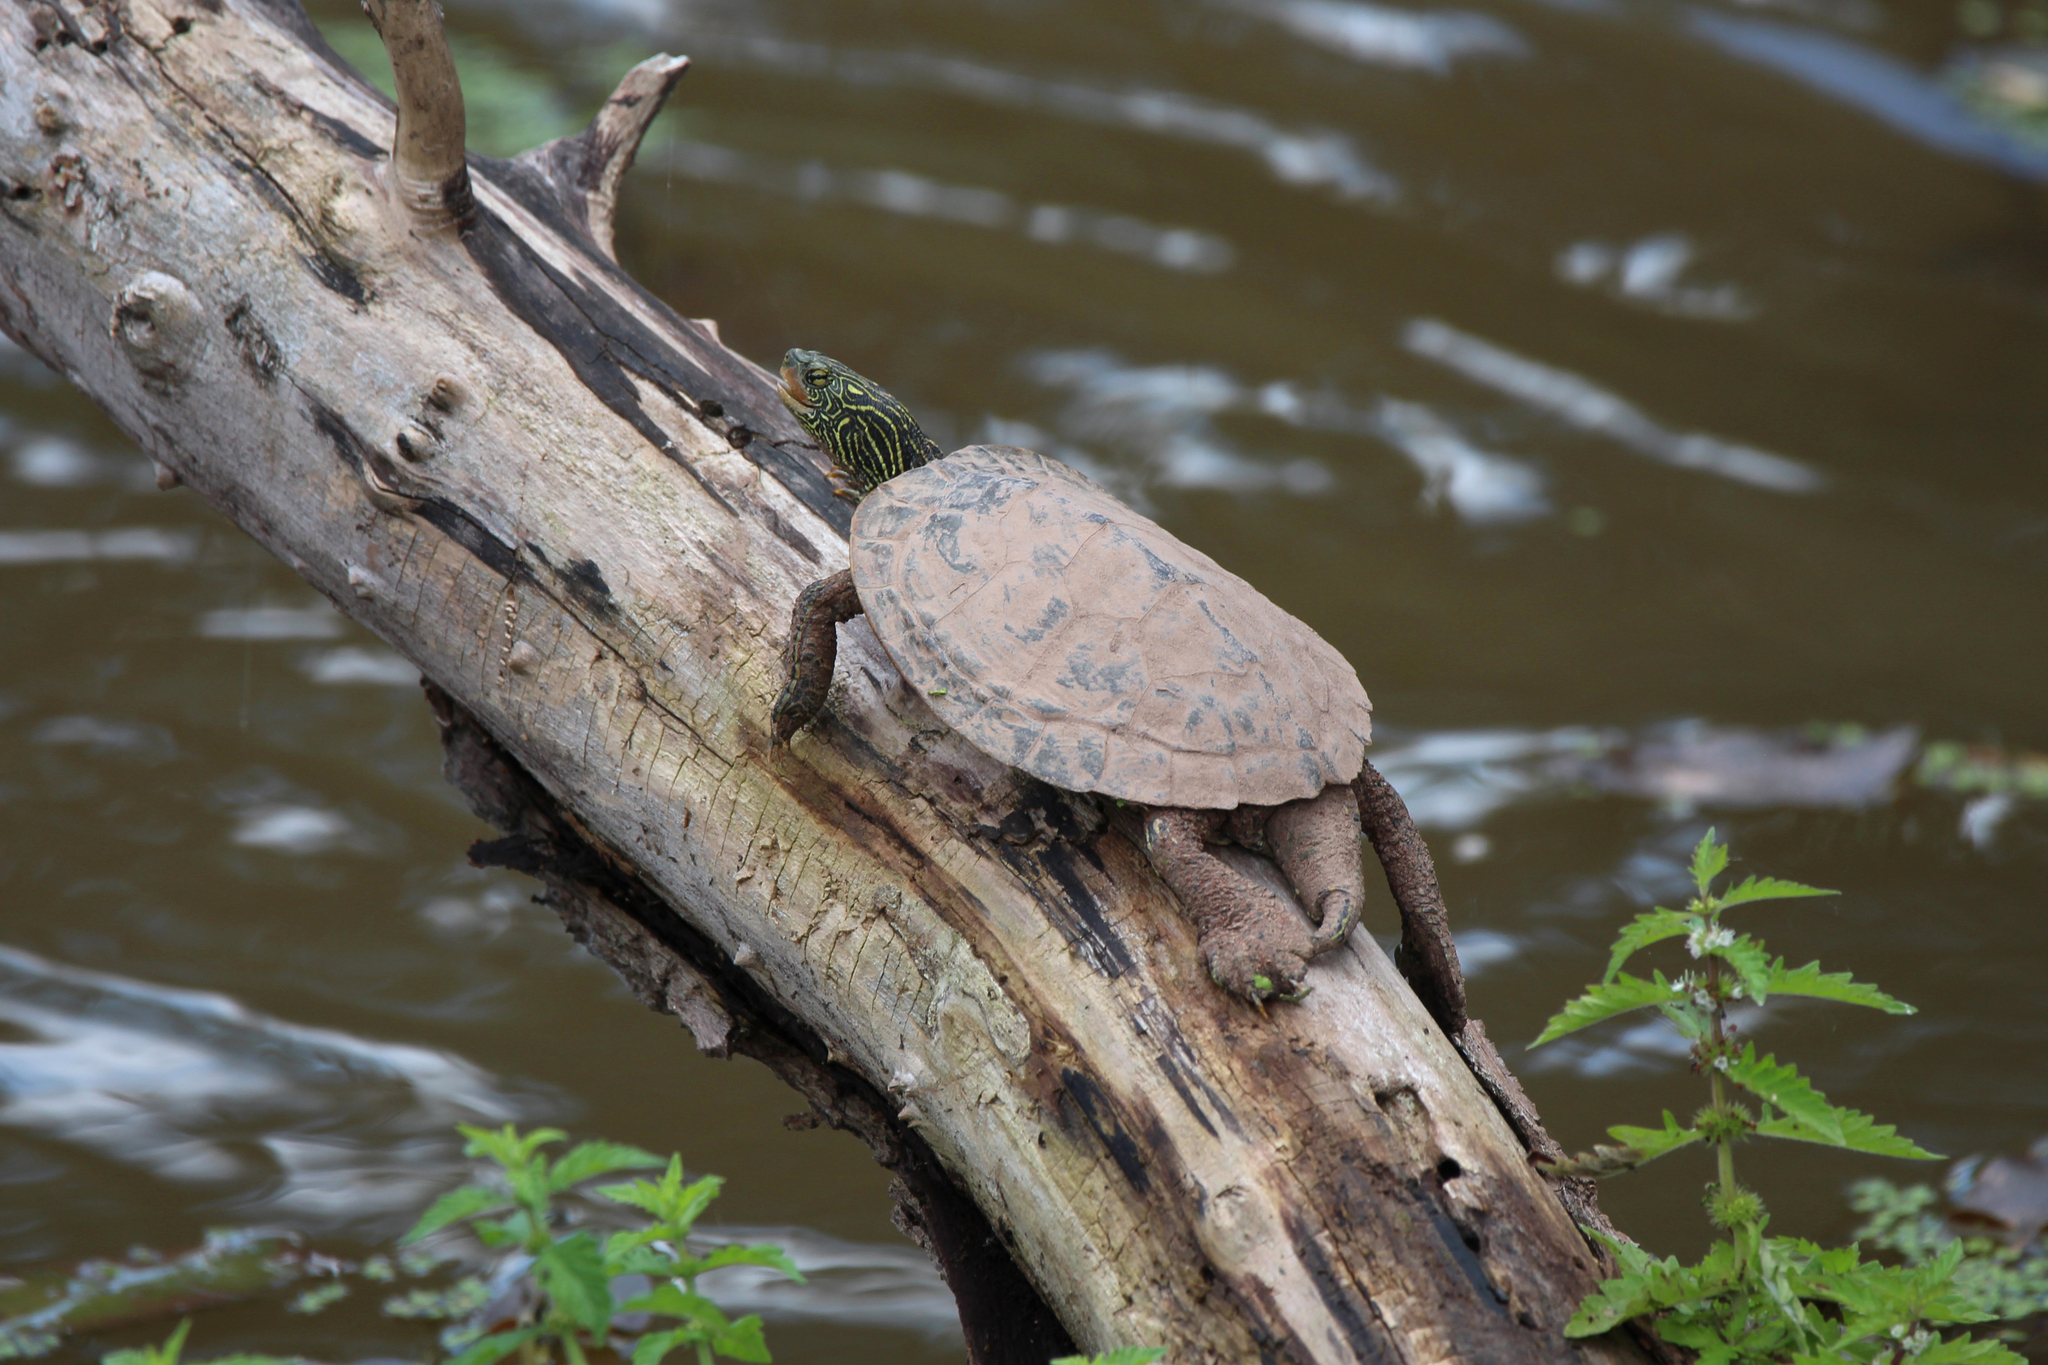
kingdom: Animalia
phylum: Chordata
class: Testudines
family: Emydidae
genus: Graptemys
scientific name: Graptemys geographica
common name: Common map turtle
